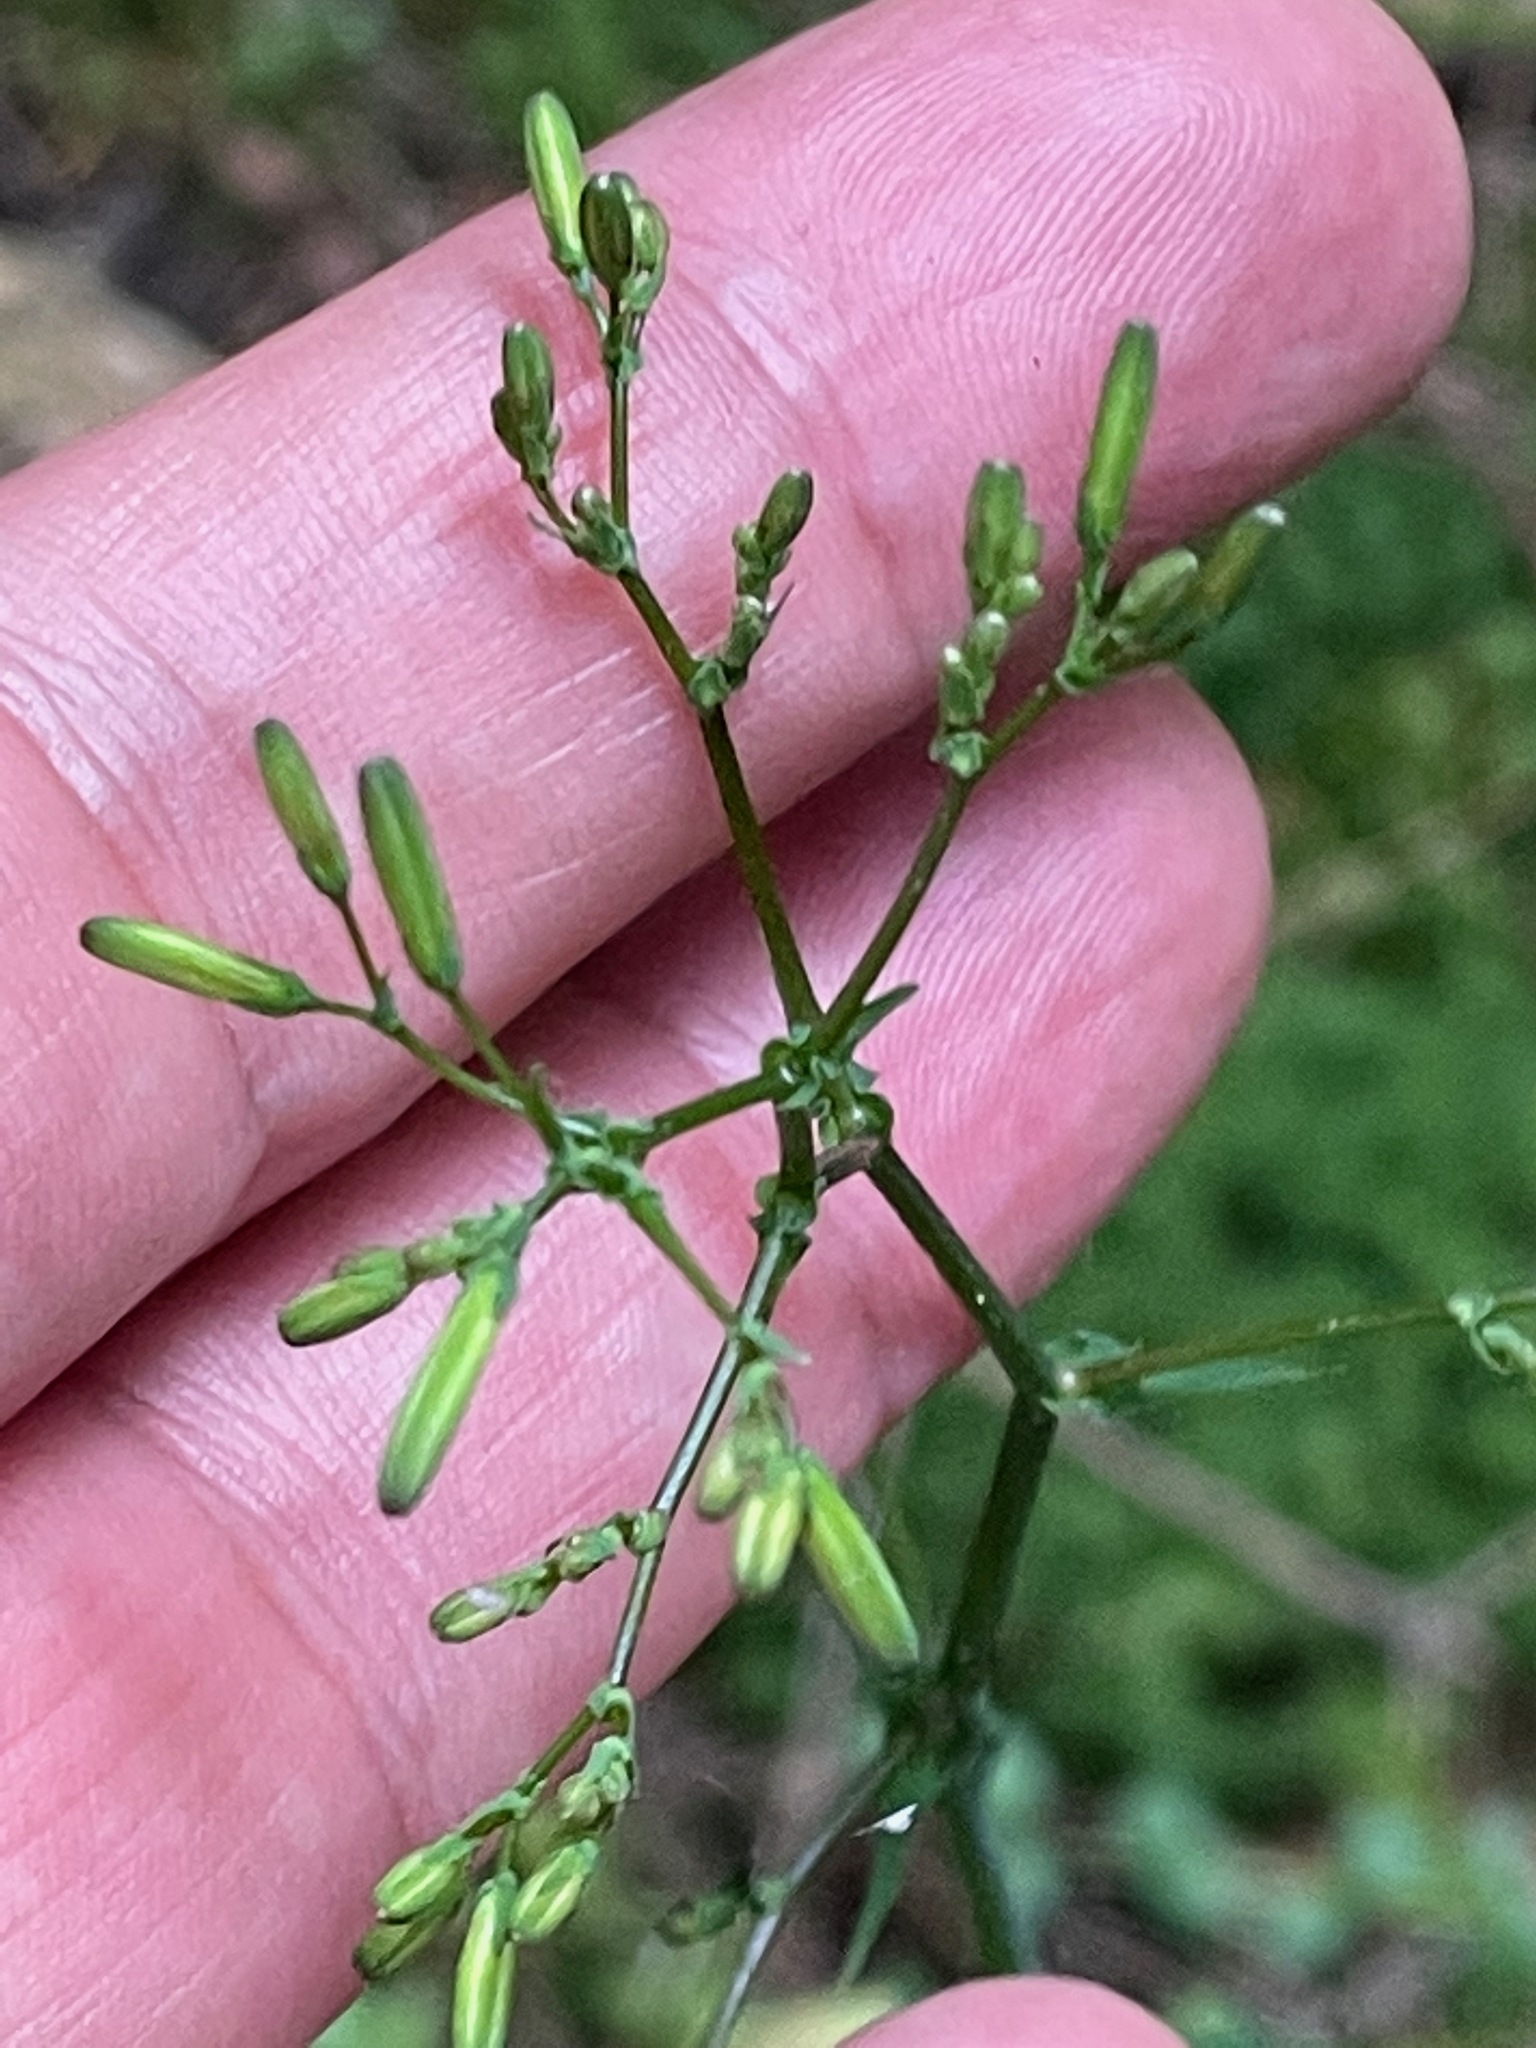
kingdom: Plantae
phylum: Tracheophyta
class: Magnoliopsida
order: Asterales
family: Asteraceae
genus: Mycelis
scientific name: Mycelis muralis
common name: Wall lettuce
